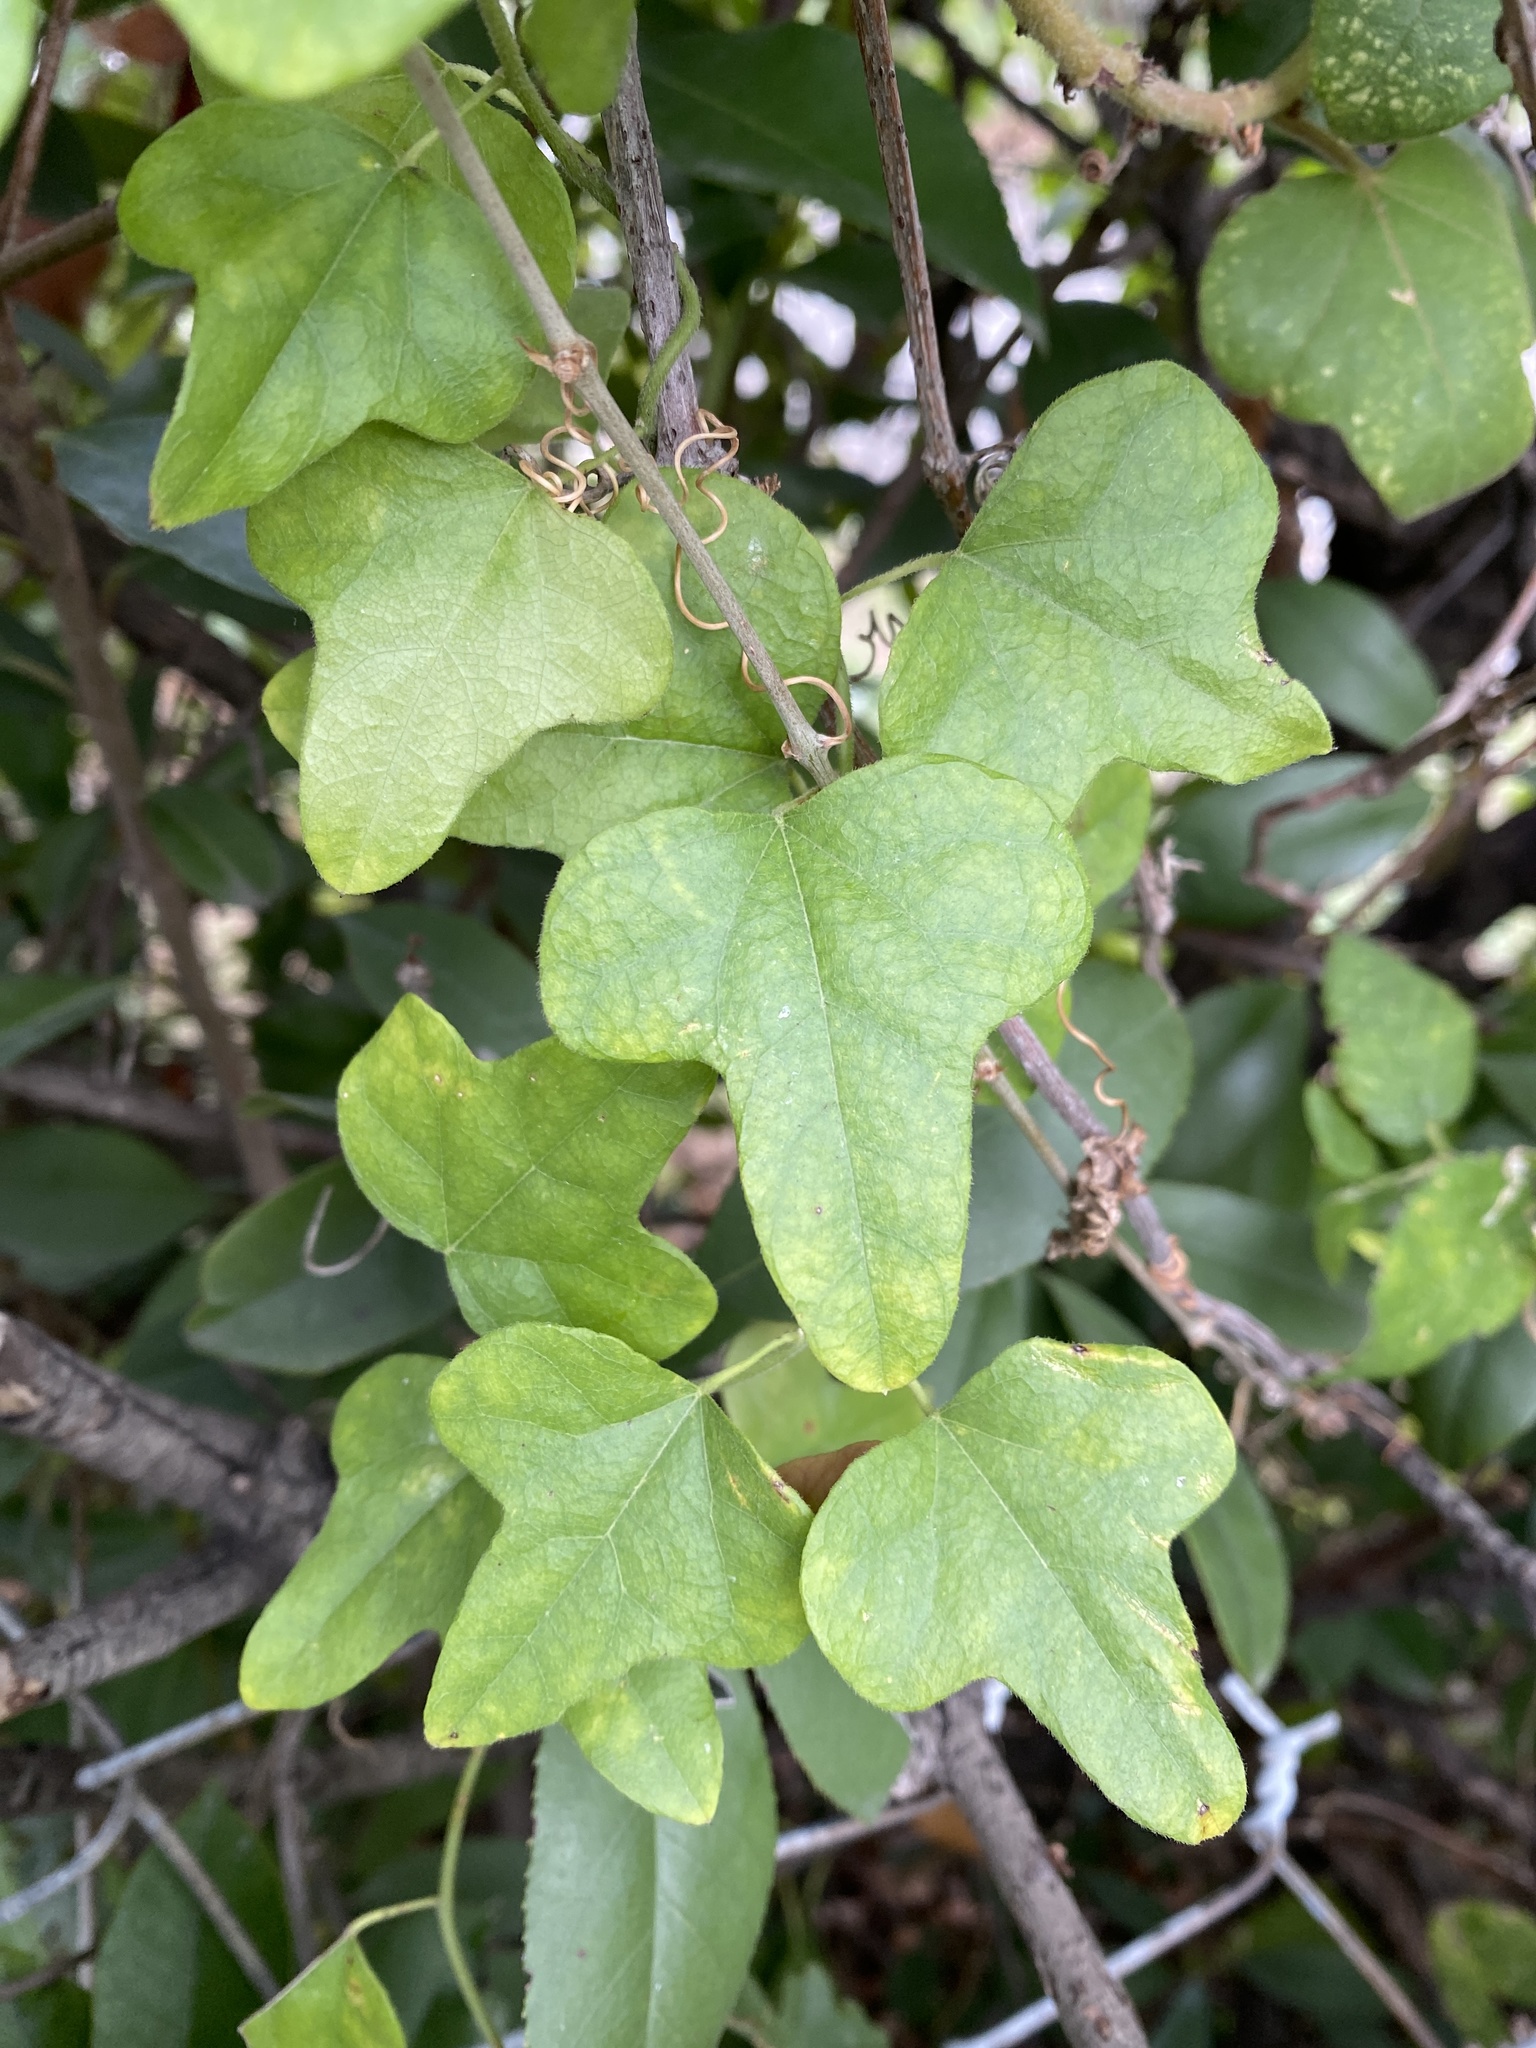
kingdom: Plantae
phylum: Tracheophyta
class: Magnoliopsida
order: Ranunculales
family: Menispermaceae
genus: Cocculus
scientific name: Cocculus carolinus
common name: Carolina moonseed
